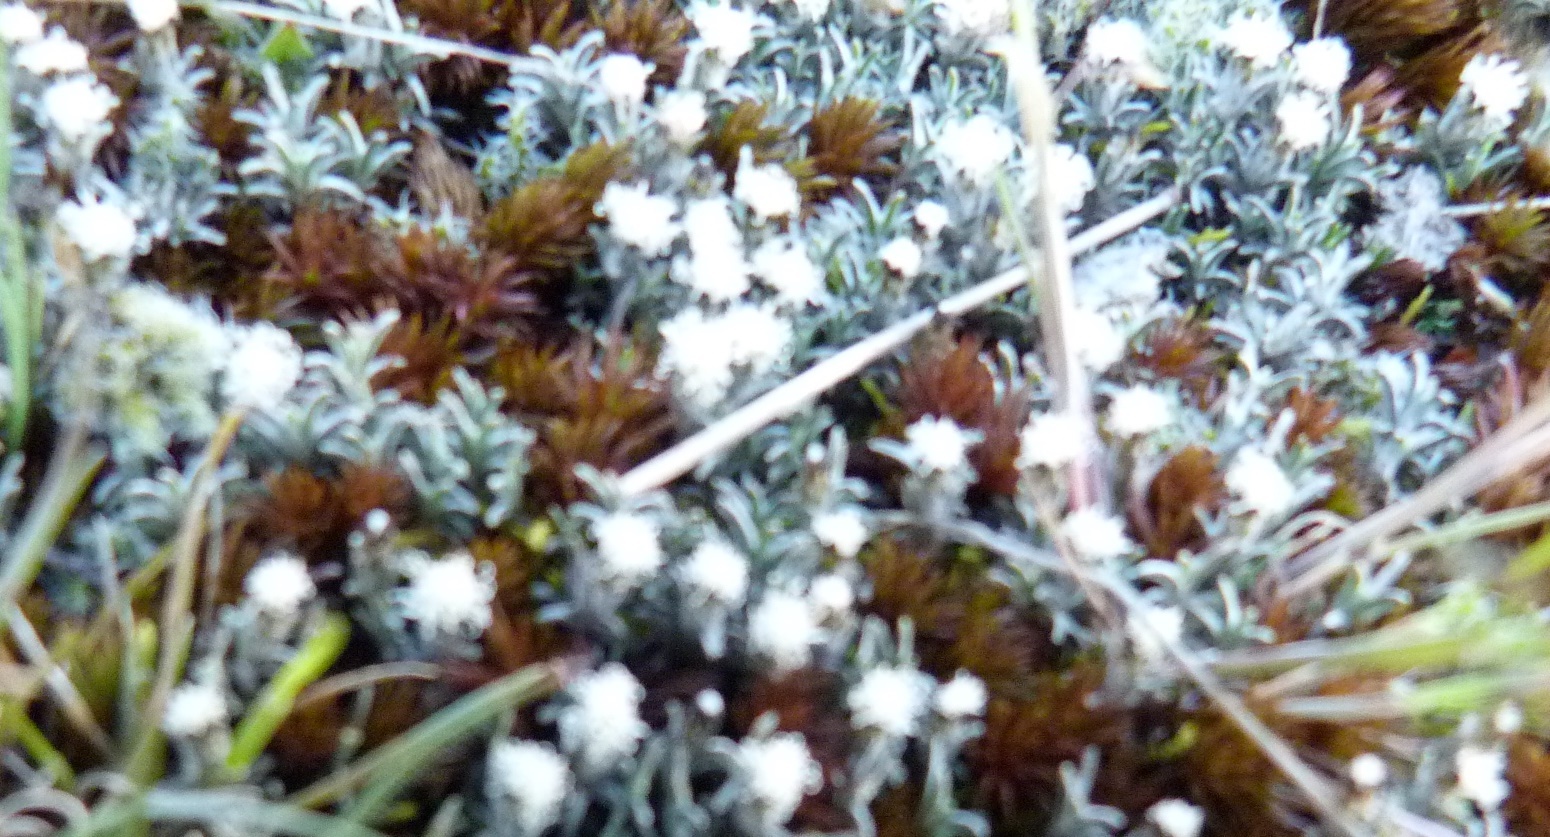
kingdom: Plantae
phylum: Tracheophyta
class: Magnoliopsida
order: Asterales
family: Asteraceae
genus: Raoulia
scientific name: Raoulia monroi
